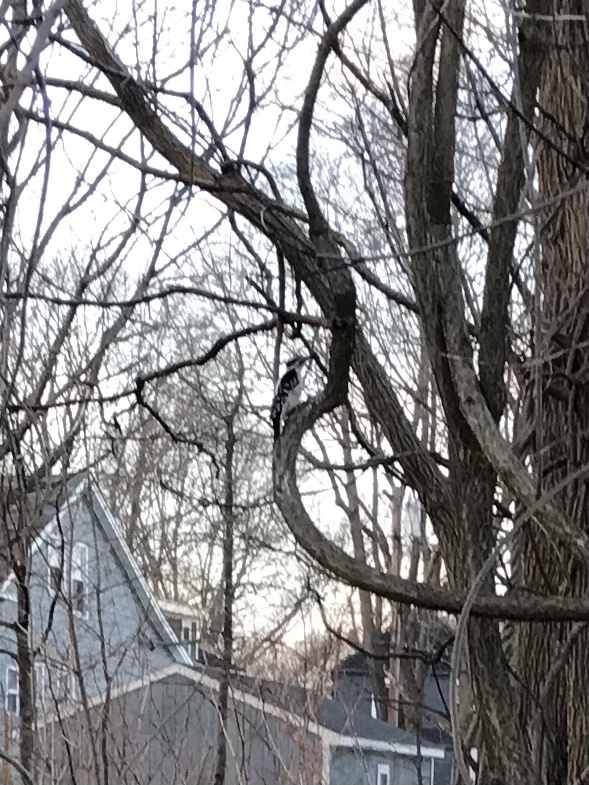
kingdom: Animalia
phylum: Chordata
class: Aves
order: Piciformes
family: Picidae
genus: Leuconotopicus
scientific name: Leuconotopicus villosus
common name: Hairy woodpecker
